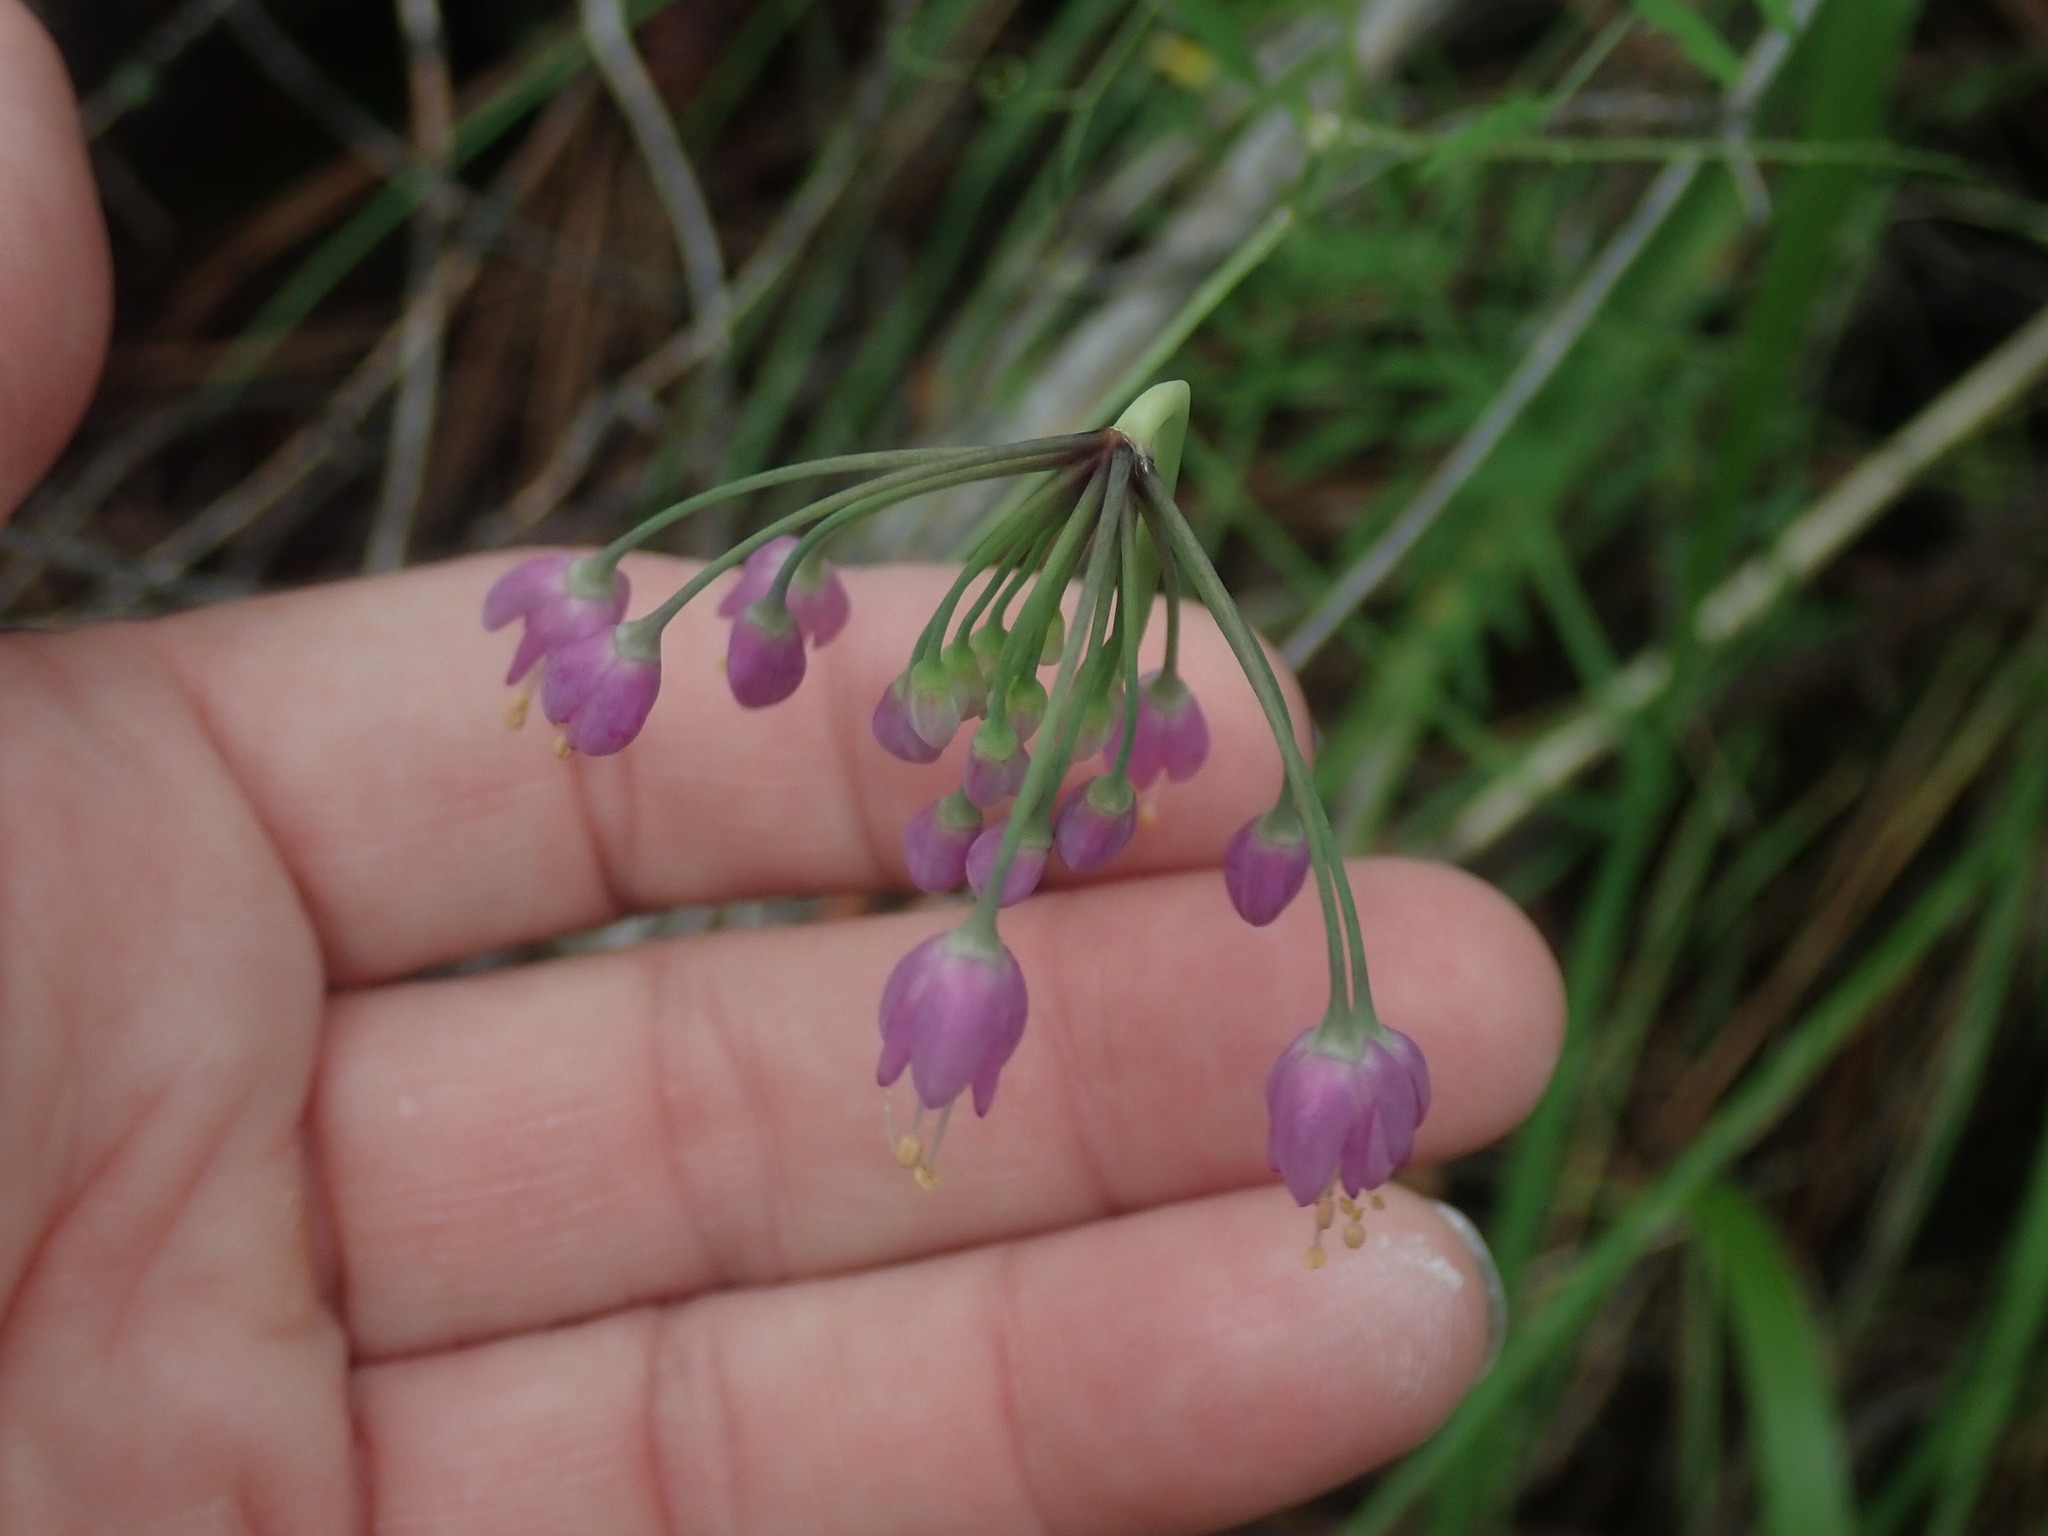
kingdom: Plantae
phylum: Tracheophyta
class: Liliopsida
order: Asparagales
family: Amaryllidaceae
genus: Allium
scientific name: Allium cernuum
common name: Nodding onion
